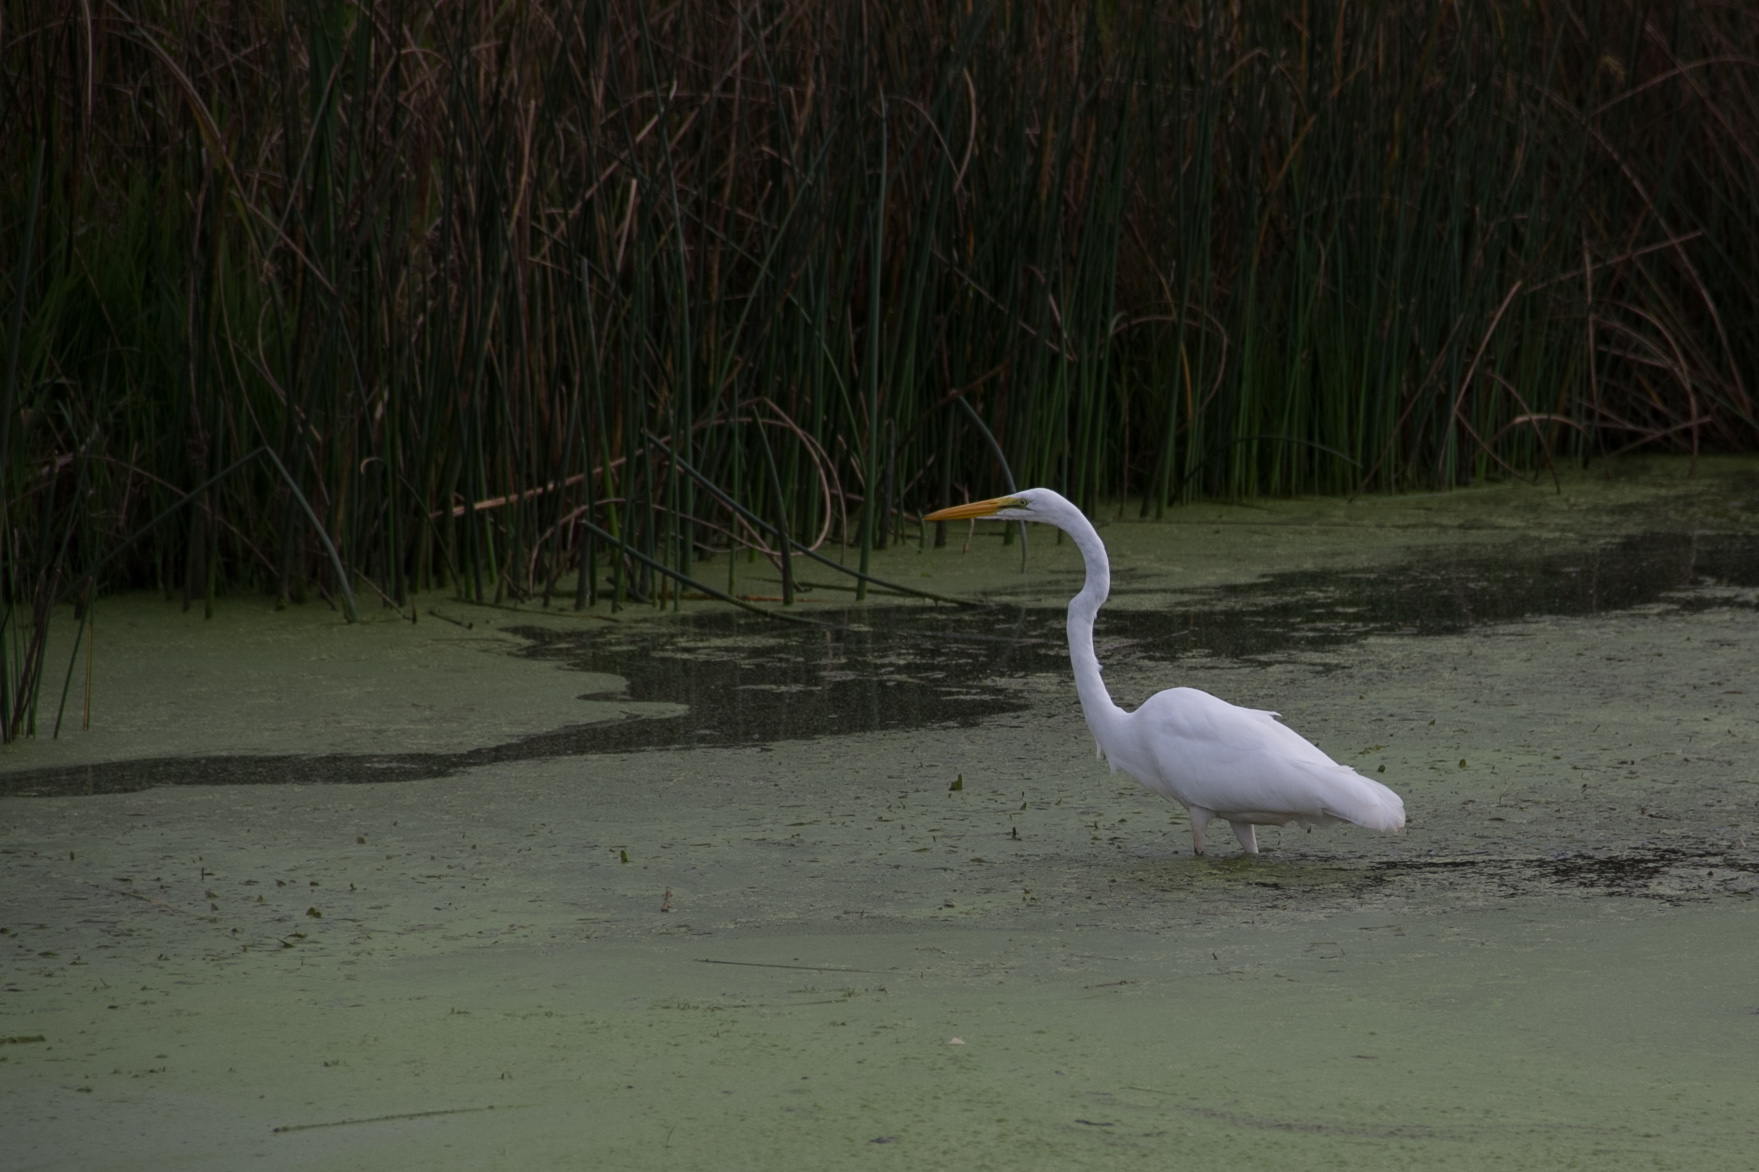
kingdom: Animalia
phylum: Chordata
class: Aves
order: Pelecaniformes
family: Ardeidae
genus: Ardea
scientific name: Ardea alba
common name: Great egret
